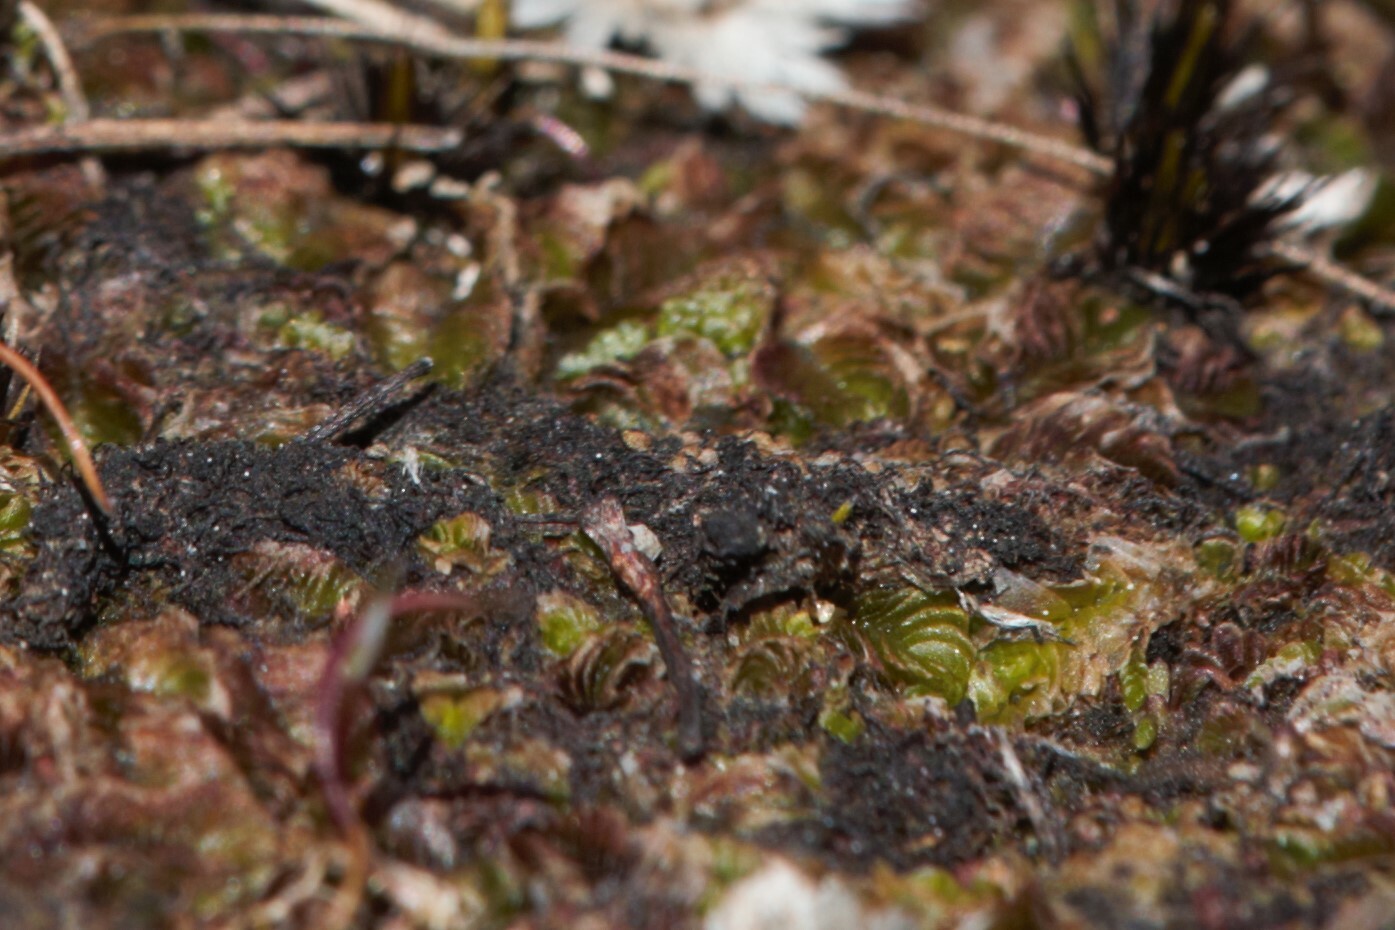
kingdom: Plantae
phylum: Marchantiophyta
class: Jungermanniopsida
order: Jungermanniales
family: Acrobolbaceae
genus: Lethocolea
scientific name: Lethocolea pansa
